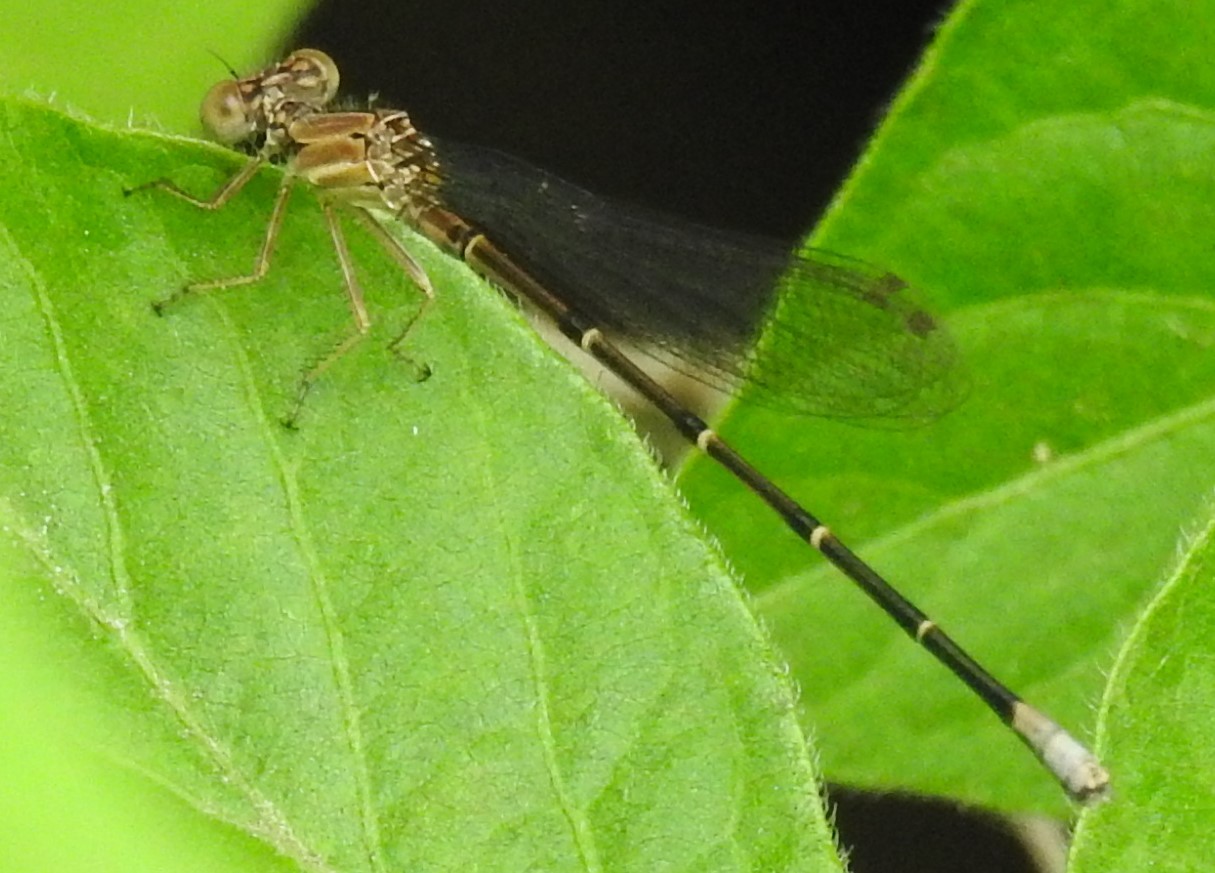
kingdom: Animalia
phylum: Arthropoda
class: Insecta
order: Odonata
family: Coenagrionidae
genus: Argia
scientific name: Argia apicalis
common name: Blue-fronted dancer
